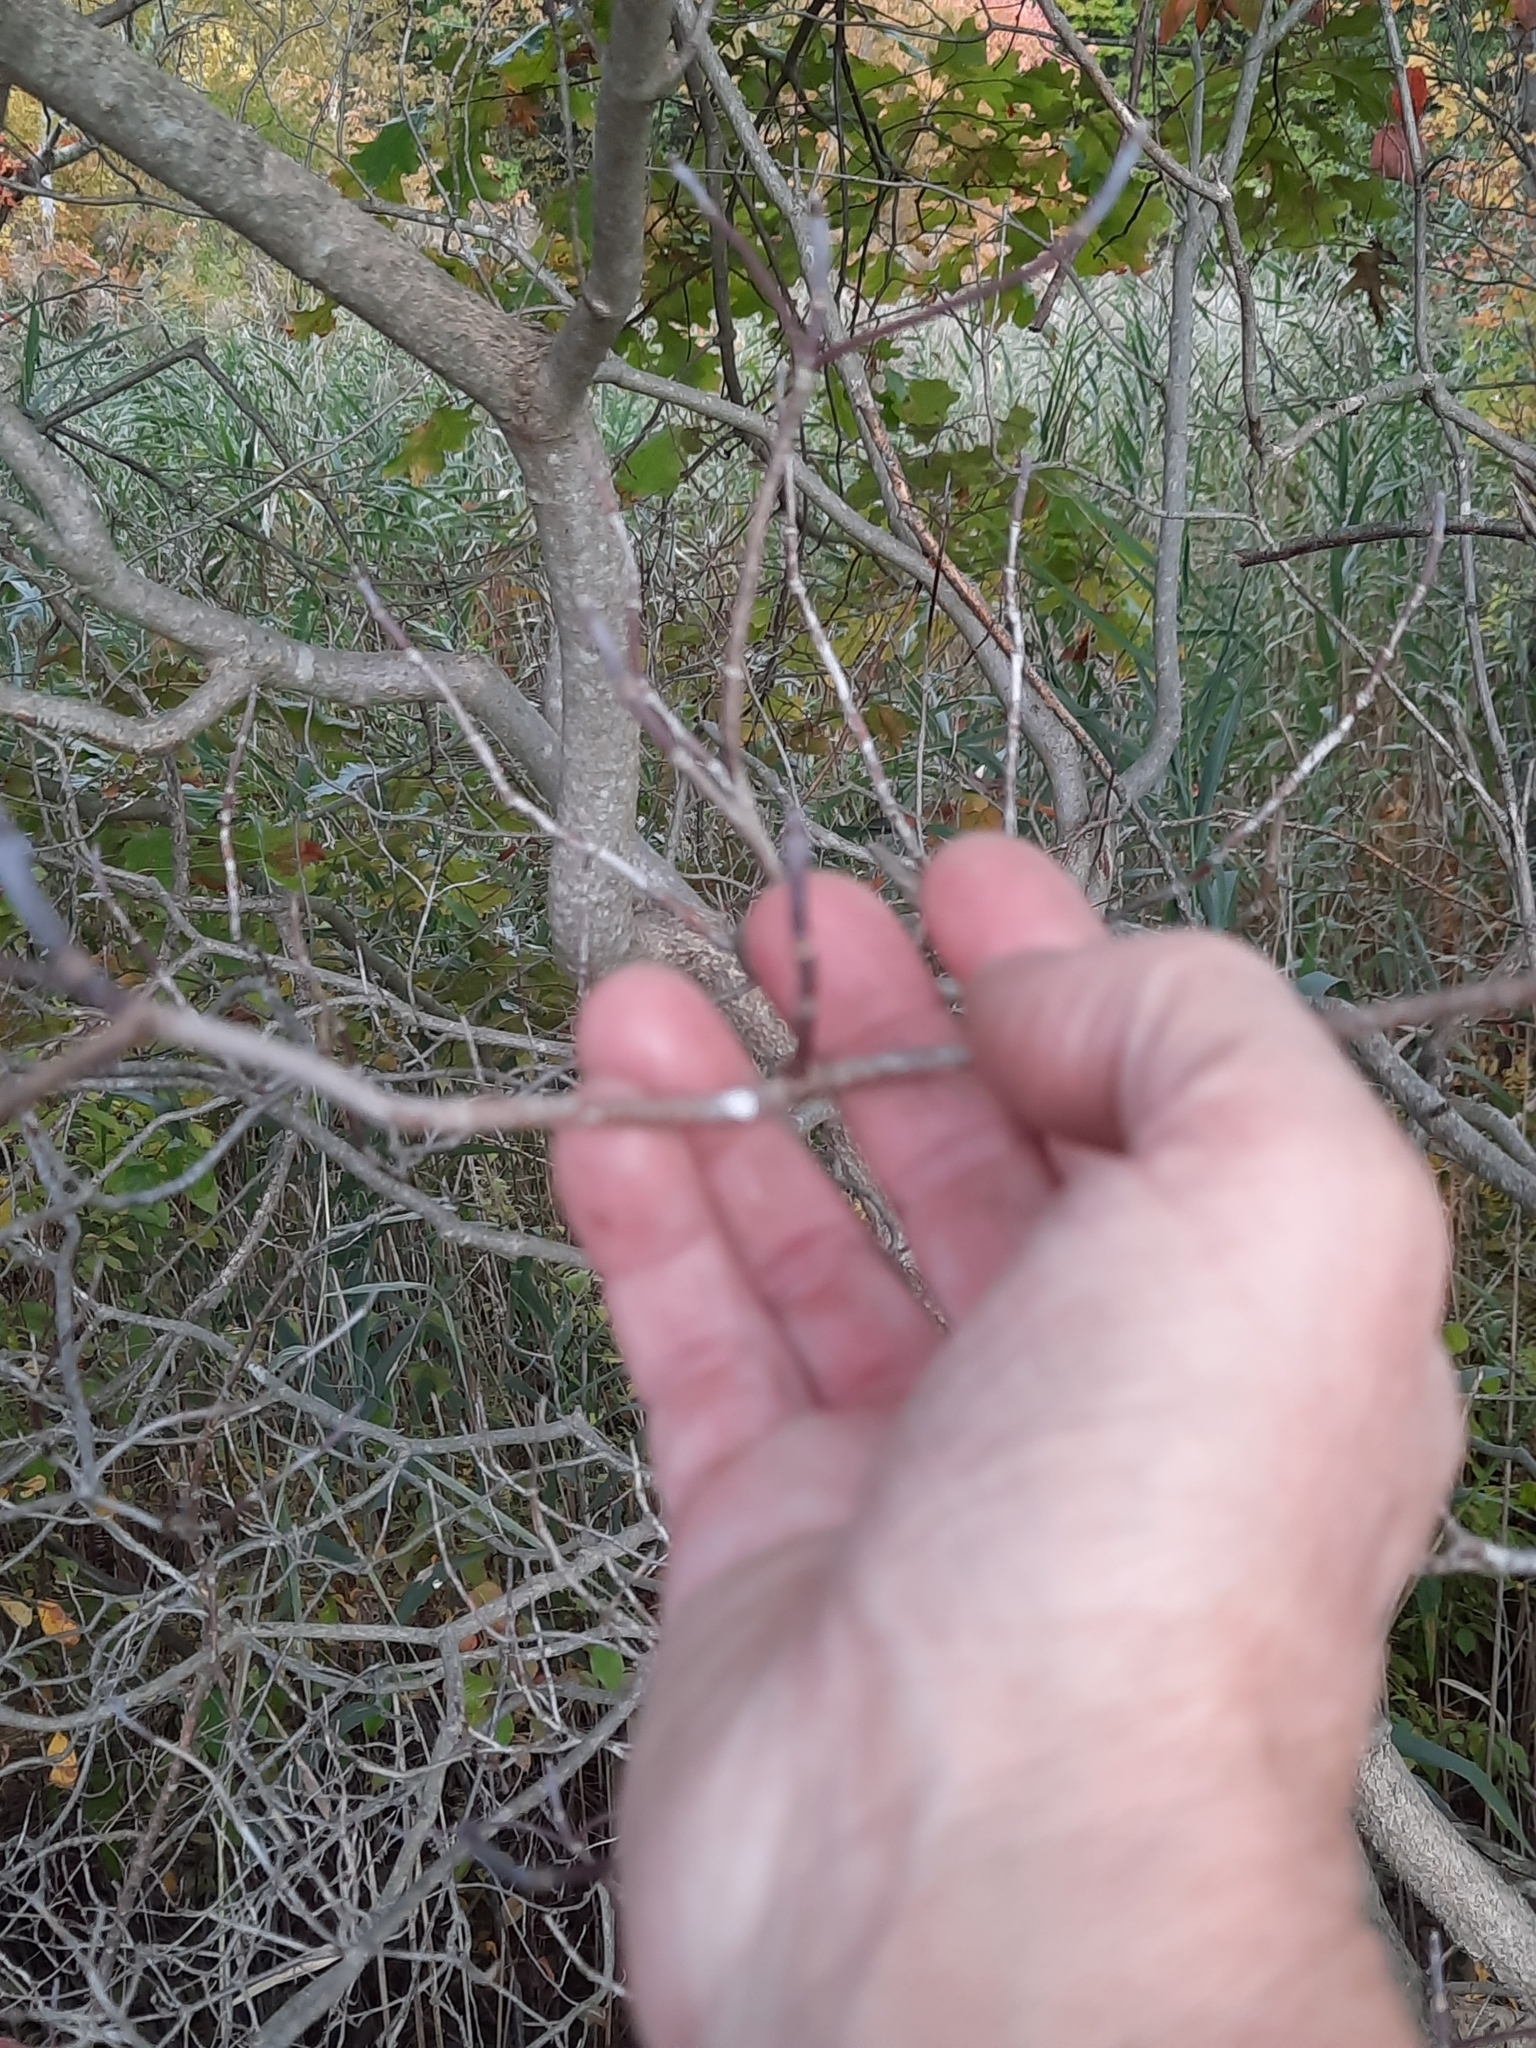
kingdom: Plantae
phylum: Tracheophyta
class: Magnoliopsida
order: Cornales
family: Cornaceae
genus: Cornus
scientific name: Cornus florida
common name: Flowering dogwood
